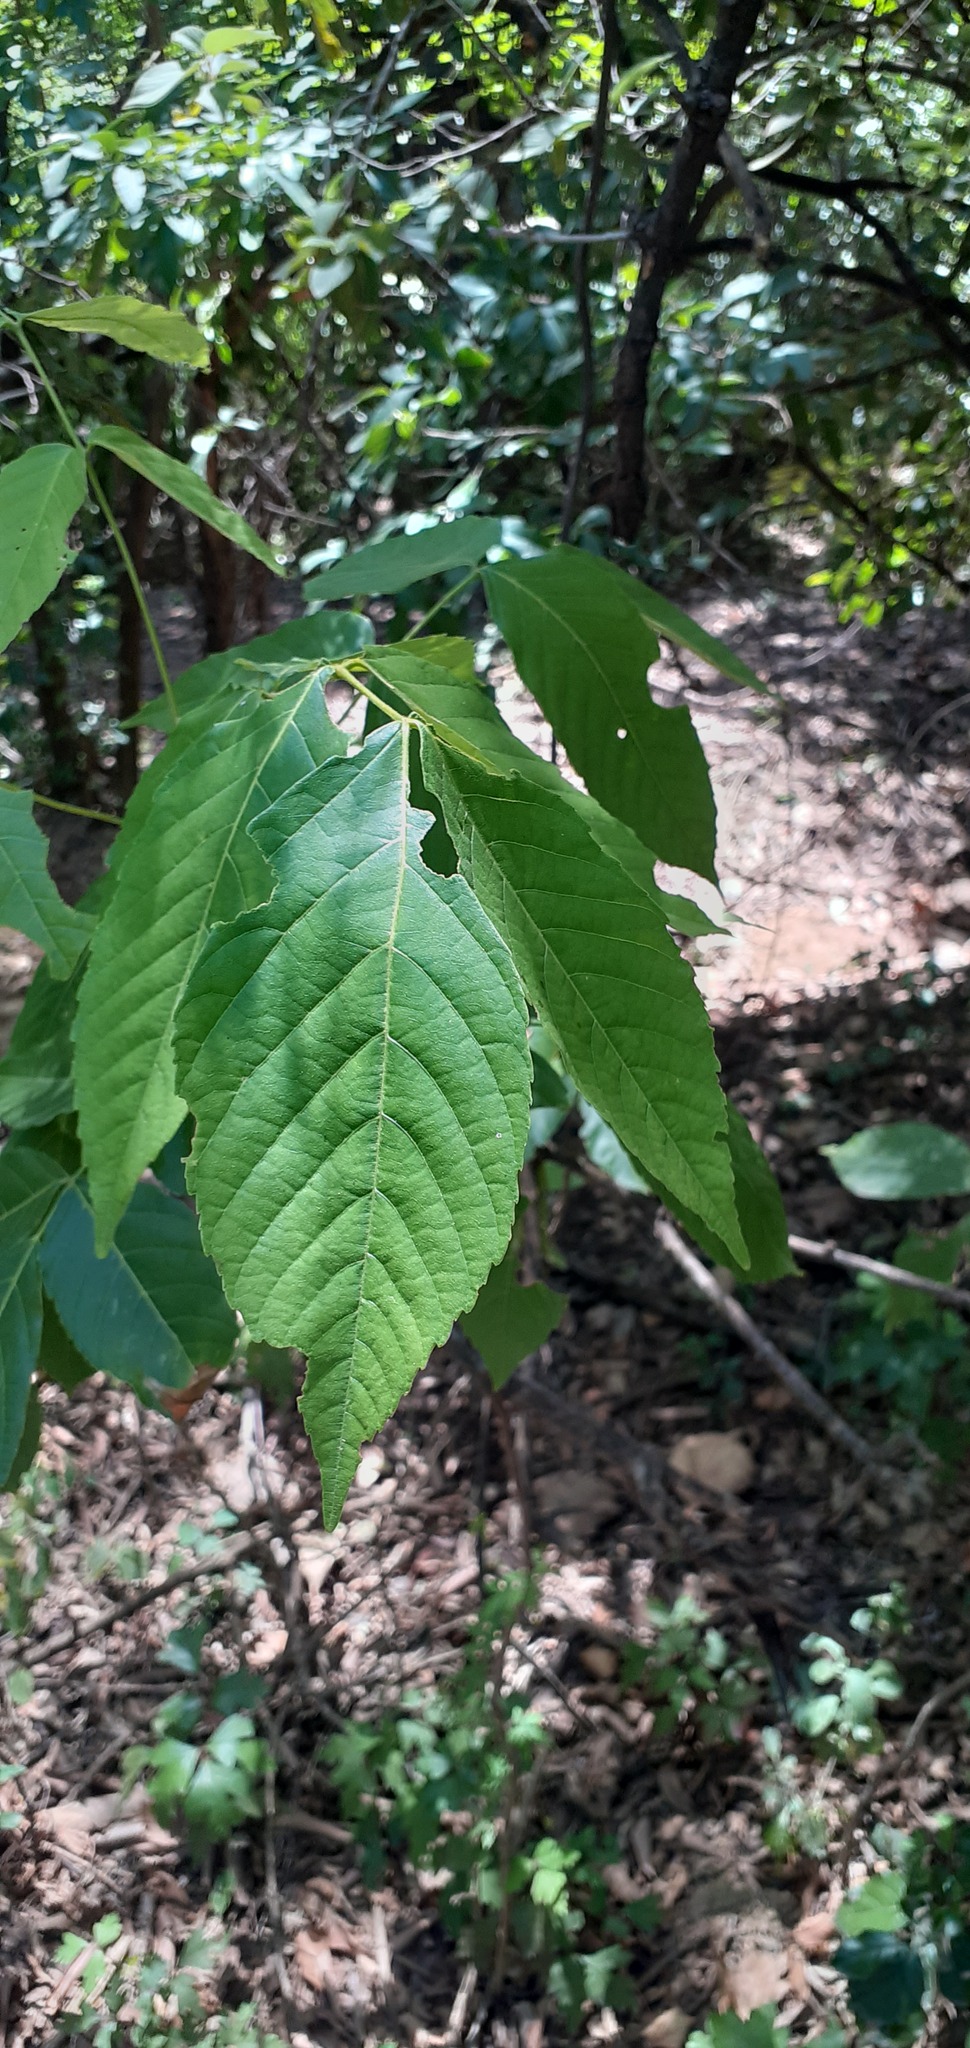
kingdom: Plantae
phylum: Tracheophyta
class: Magnoliopsida
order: Sapindales
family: Sapindaceae
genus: Ungnadia
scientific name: Ungnadia speciosa
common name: Texas-buckeye
